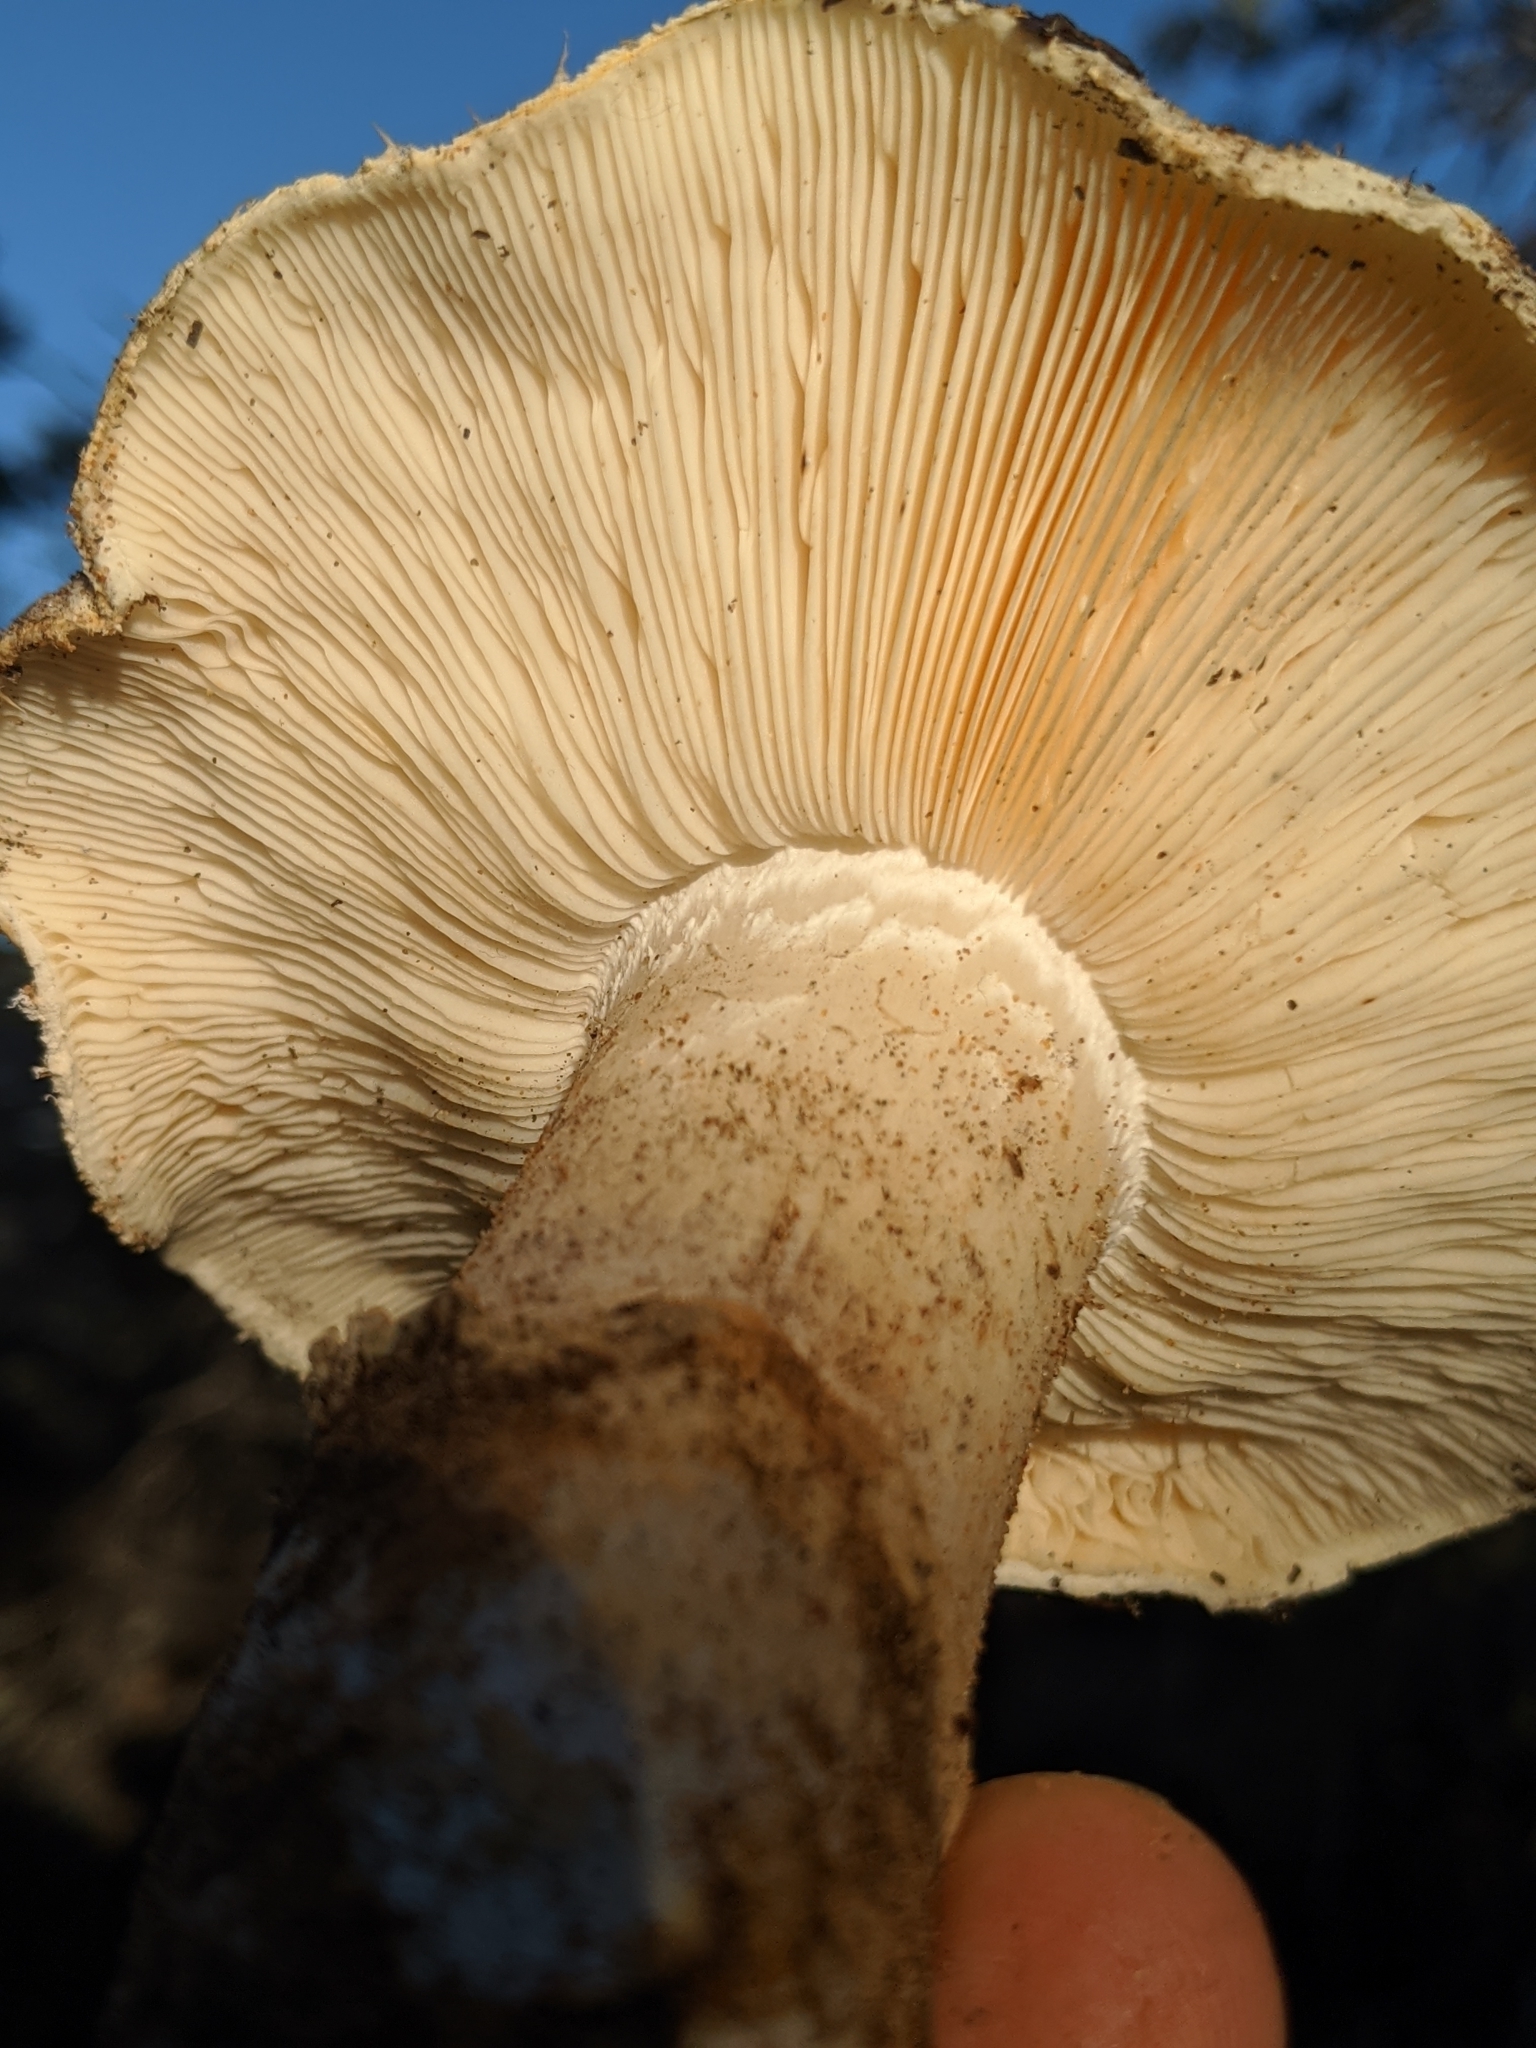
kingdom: Fungi
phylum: Basidiomycota
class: Agaricomycetes
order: Agaricales
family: Tricholomataceae
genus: Tricholoma
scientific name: Tricholoma murrillianum
